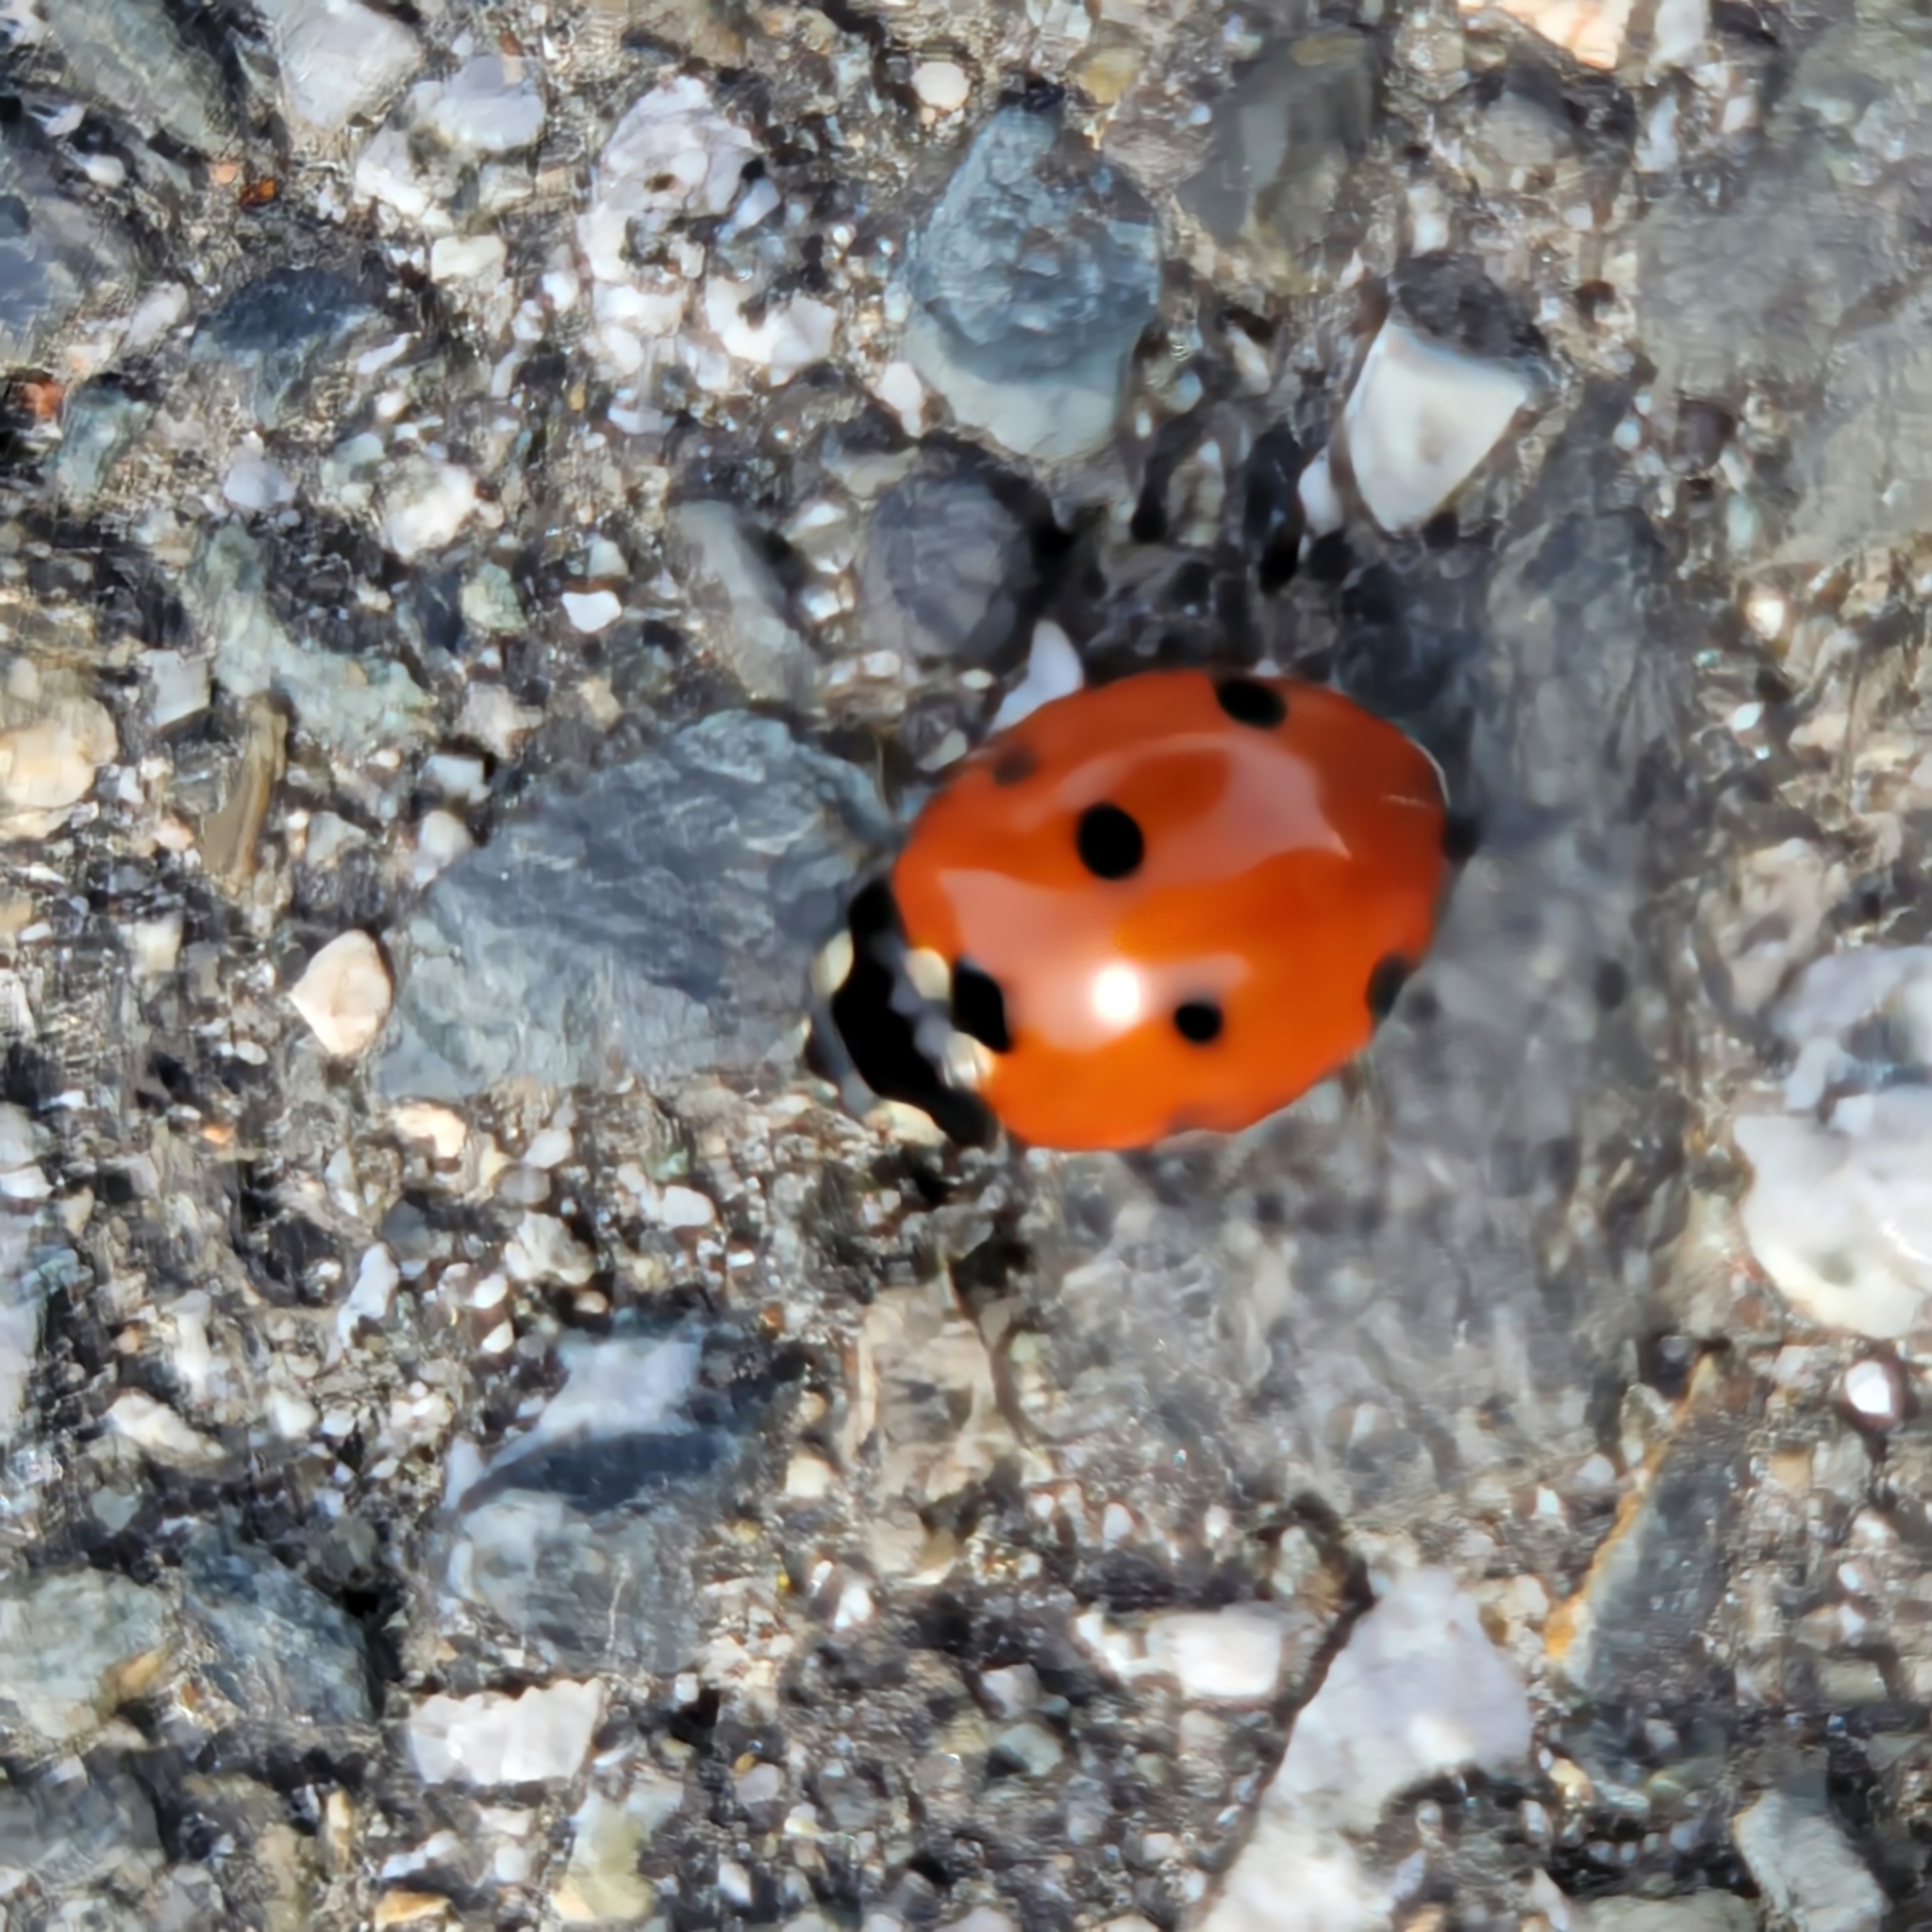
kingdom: Animalia
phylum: Arthropoda
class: Insecta
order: Coleoptera
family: Coccinellidae
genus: Coccinella
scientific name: Coccinella septempunctata
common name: Sevenspotted lady beetle
